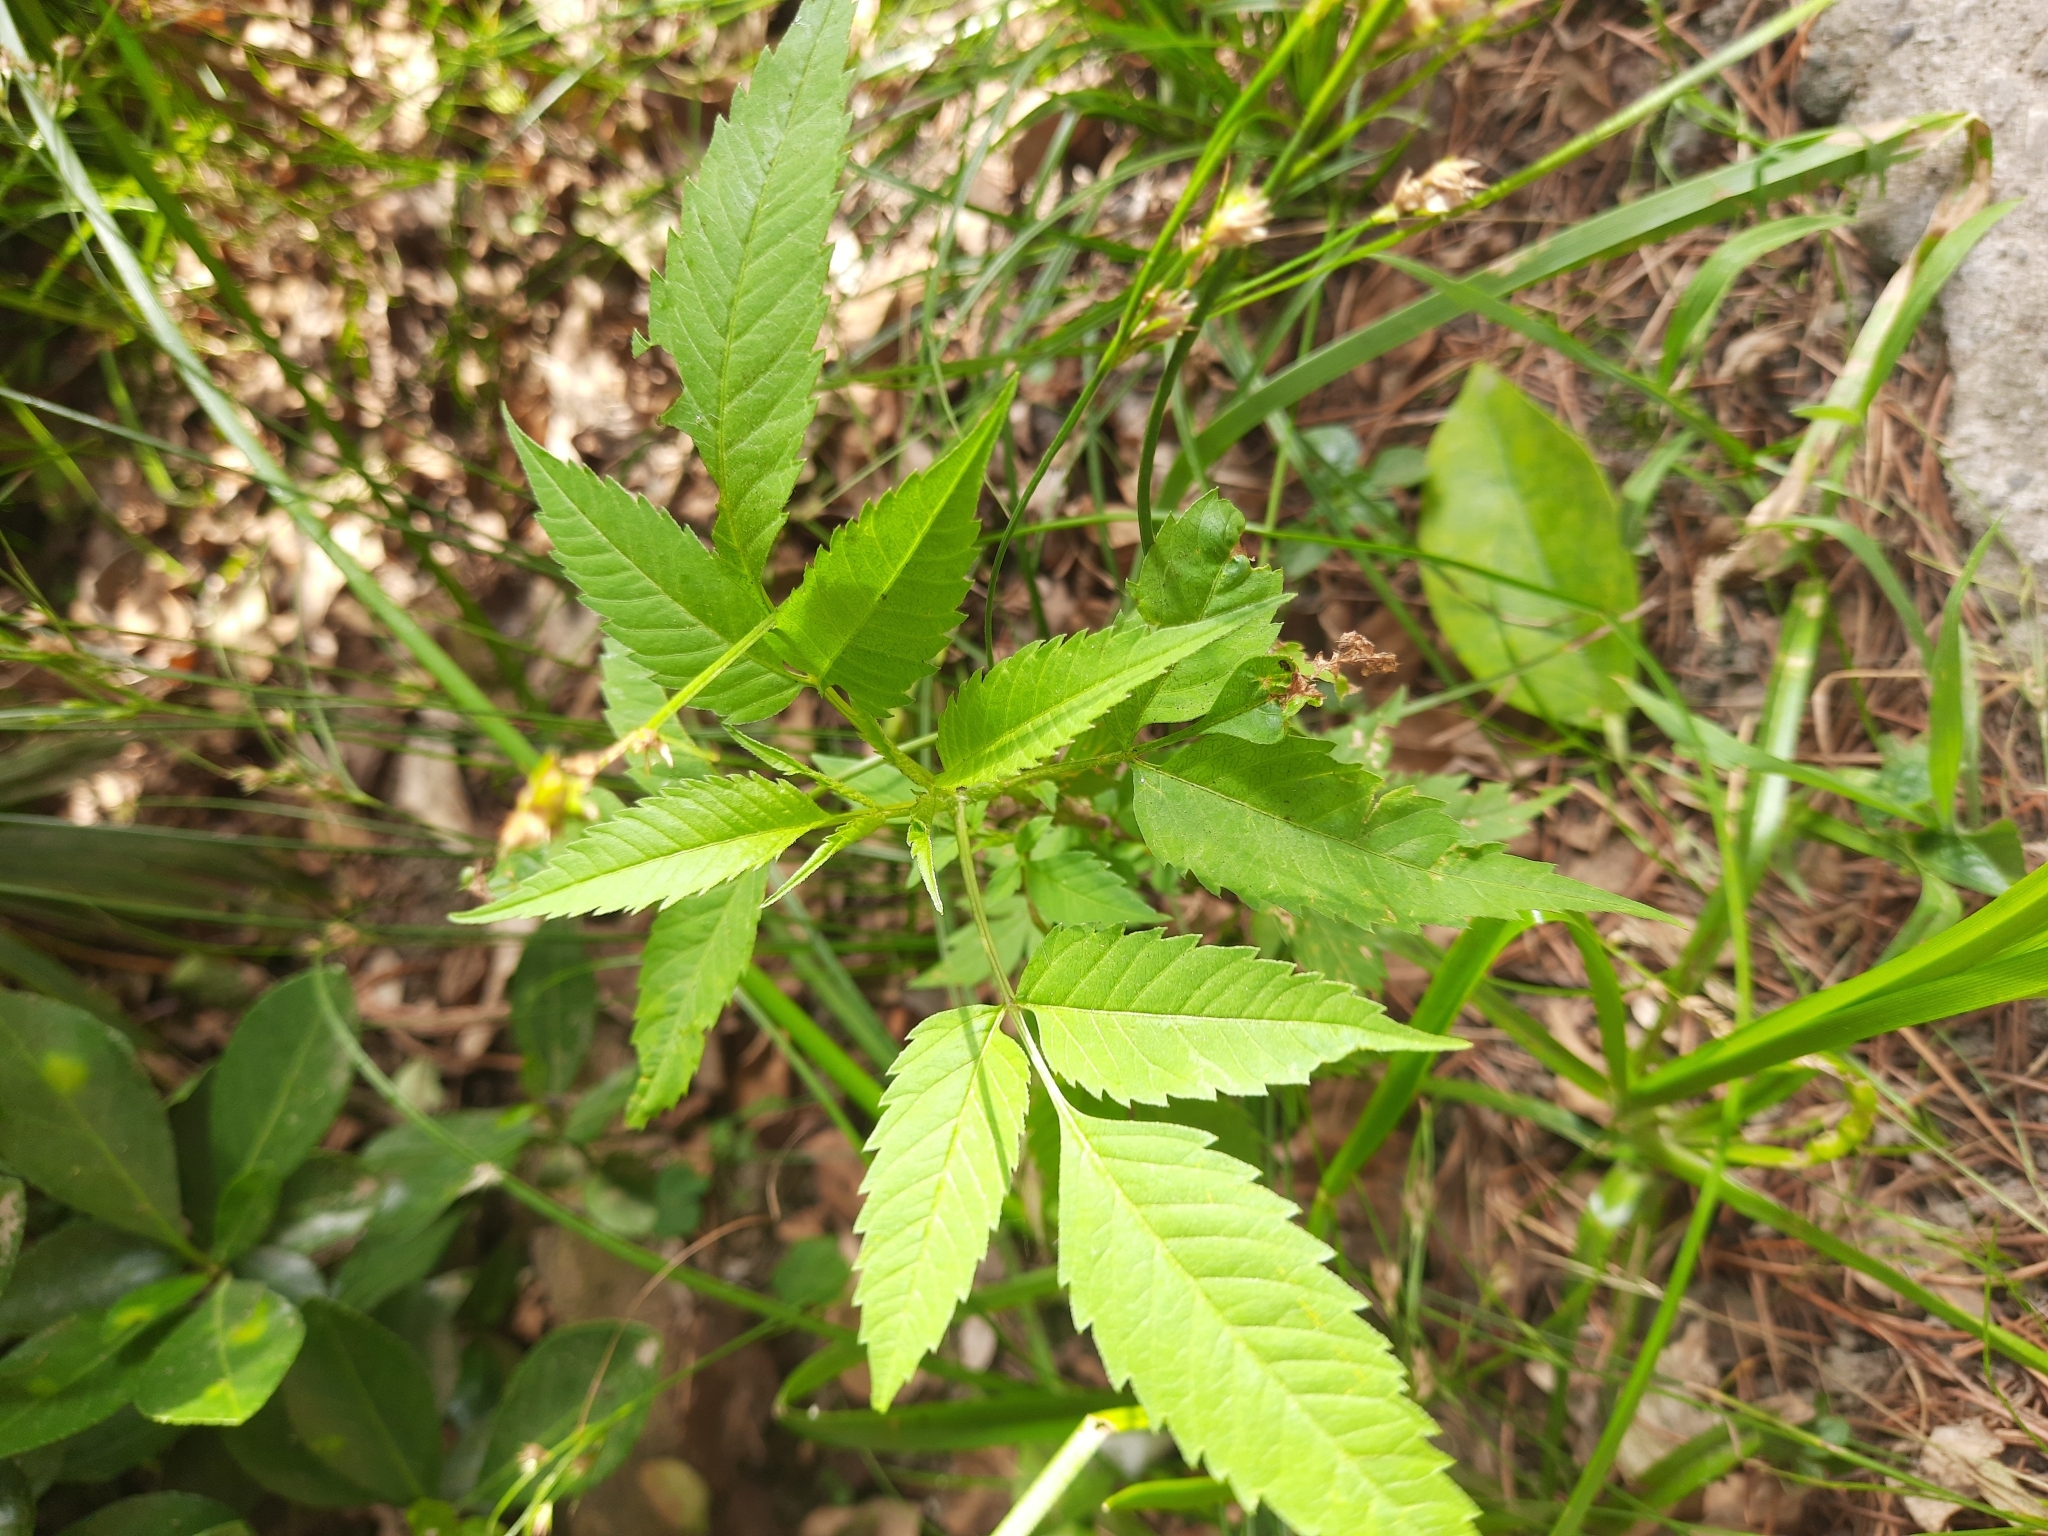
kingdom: Plantae
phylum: Tracheophyta
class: Magnoliopsida
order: Asterales
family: Asteraceae
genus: Bidens
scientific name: Bidens frondosa
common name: Beggarticks
